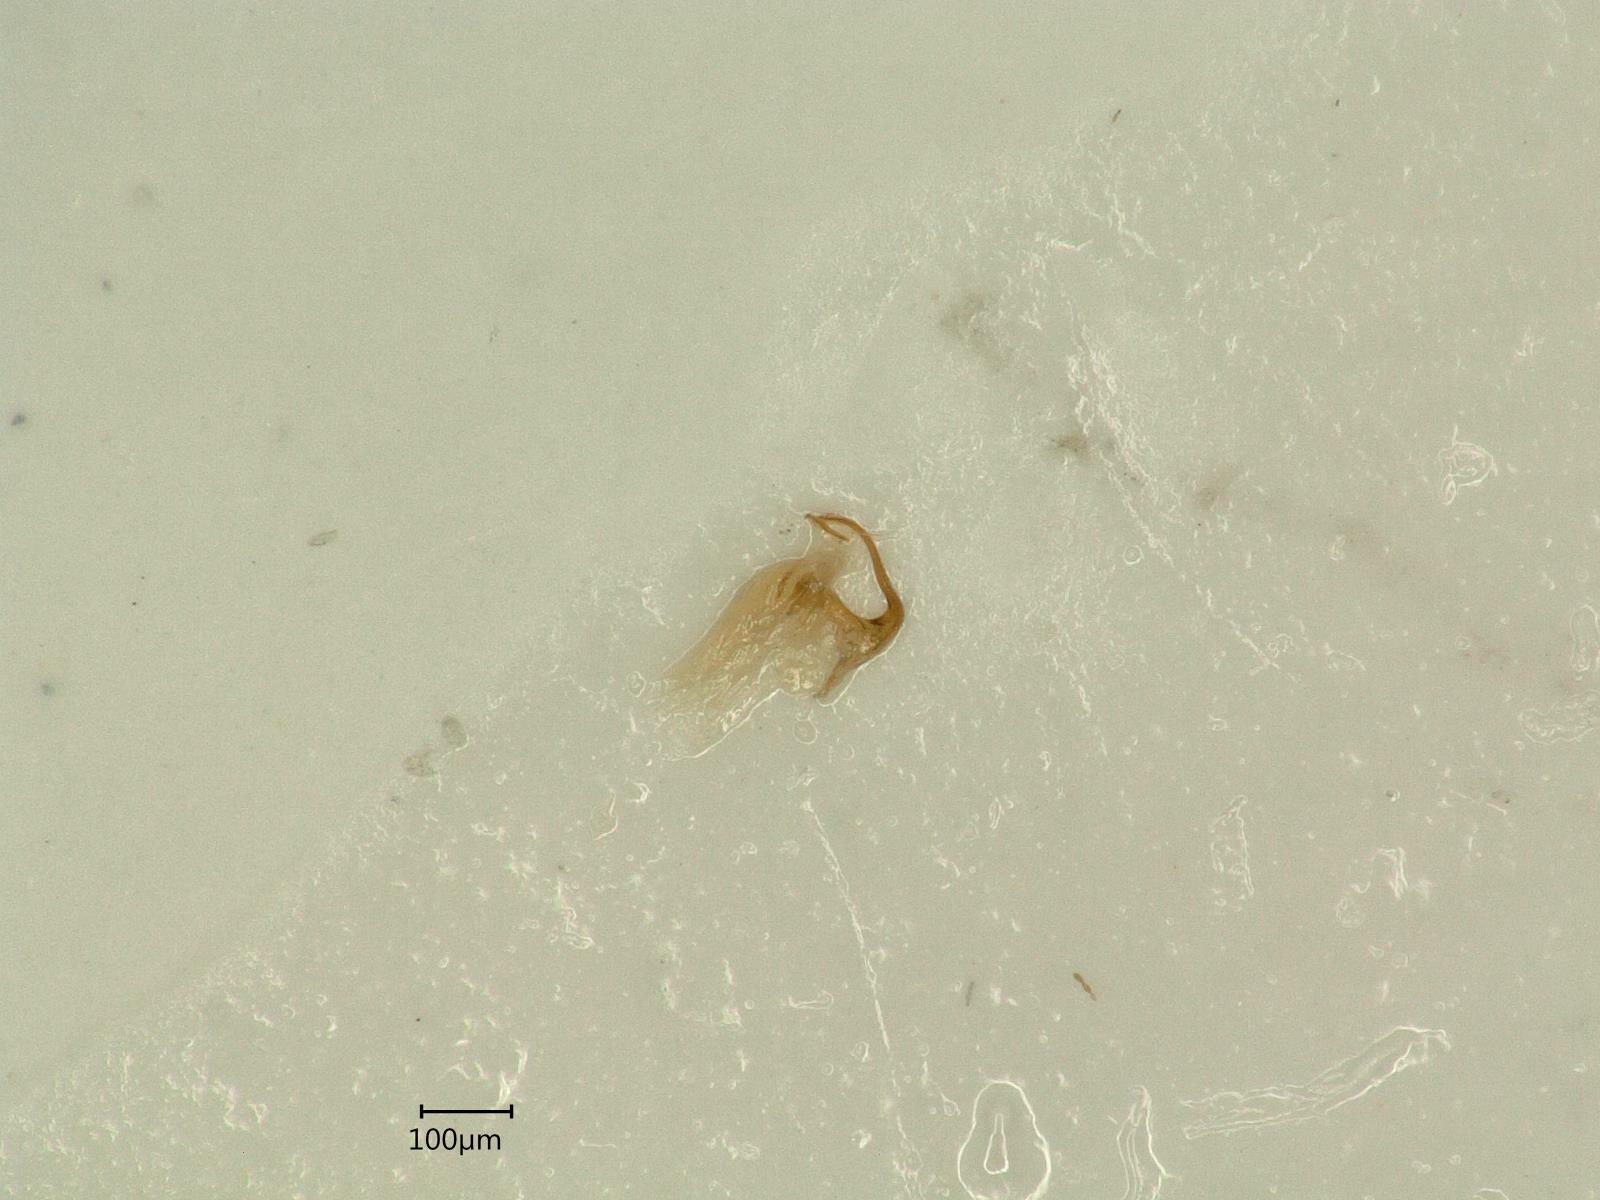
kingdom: Animalia
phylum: Arthropoda
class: Insecta
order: Hemiptera
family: Cicadellidae
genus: Eupteryx
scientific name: Eupteryx urticae
